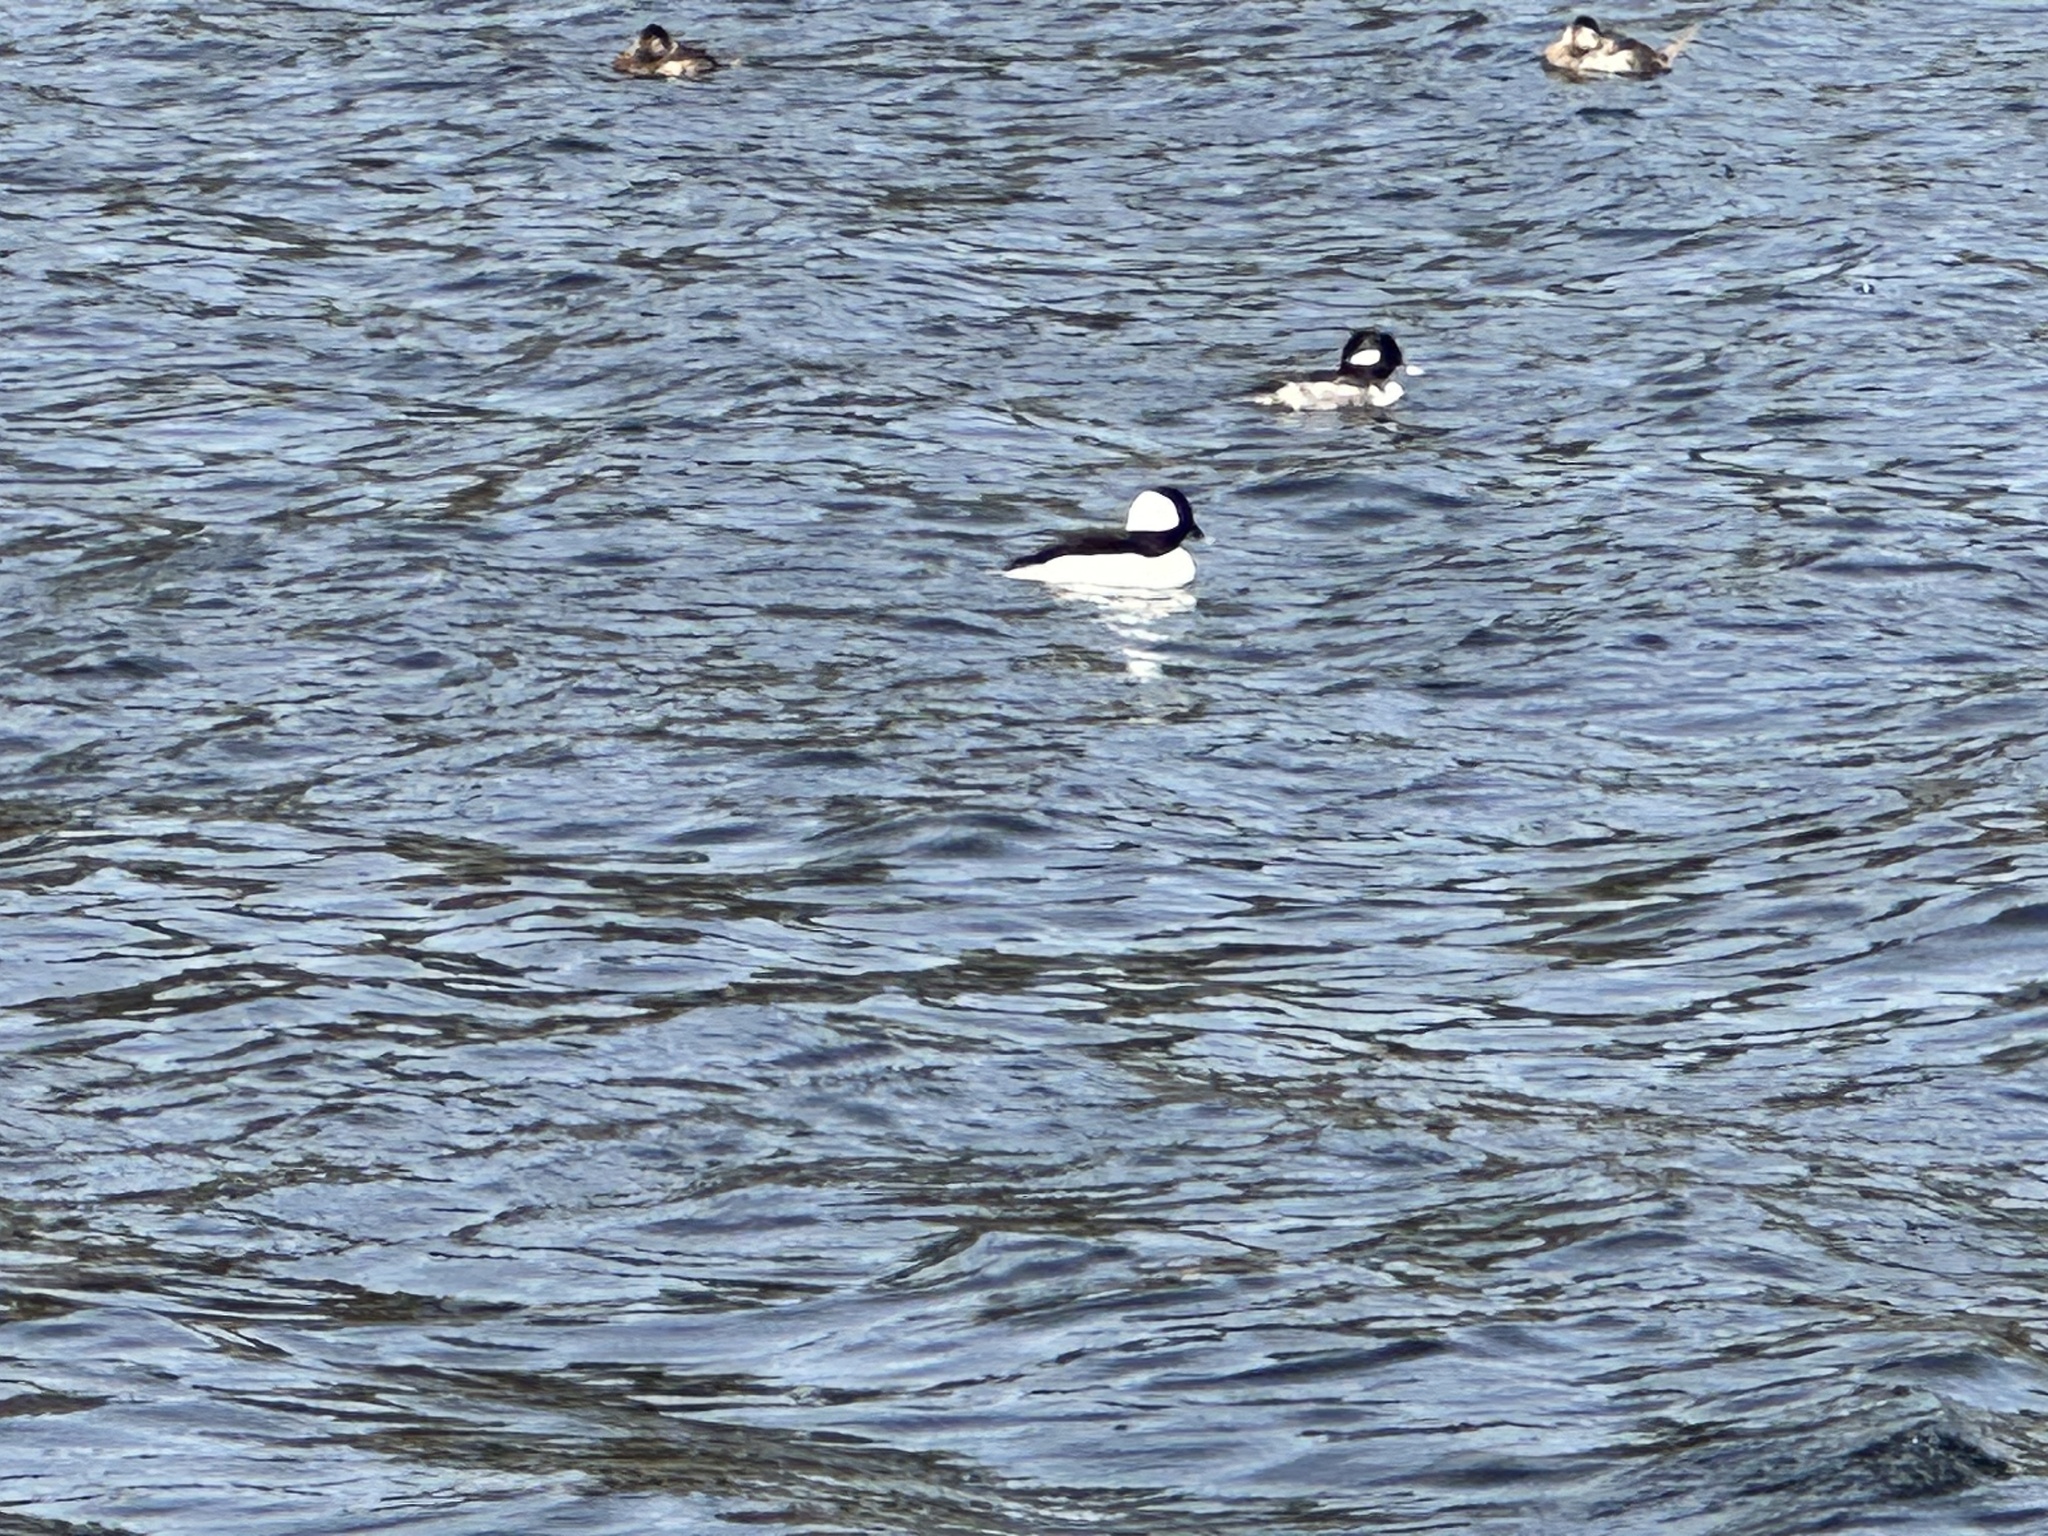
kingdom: Animalia
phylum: Chordata
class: Aves
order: Anseriformes
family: Anatidae
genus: Bucephala
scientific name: Bucephala albeola
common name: Bufflehead
